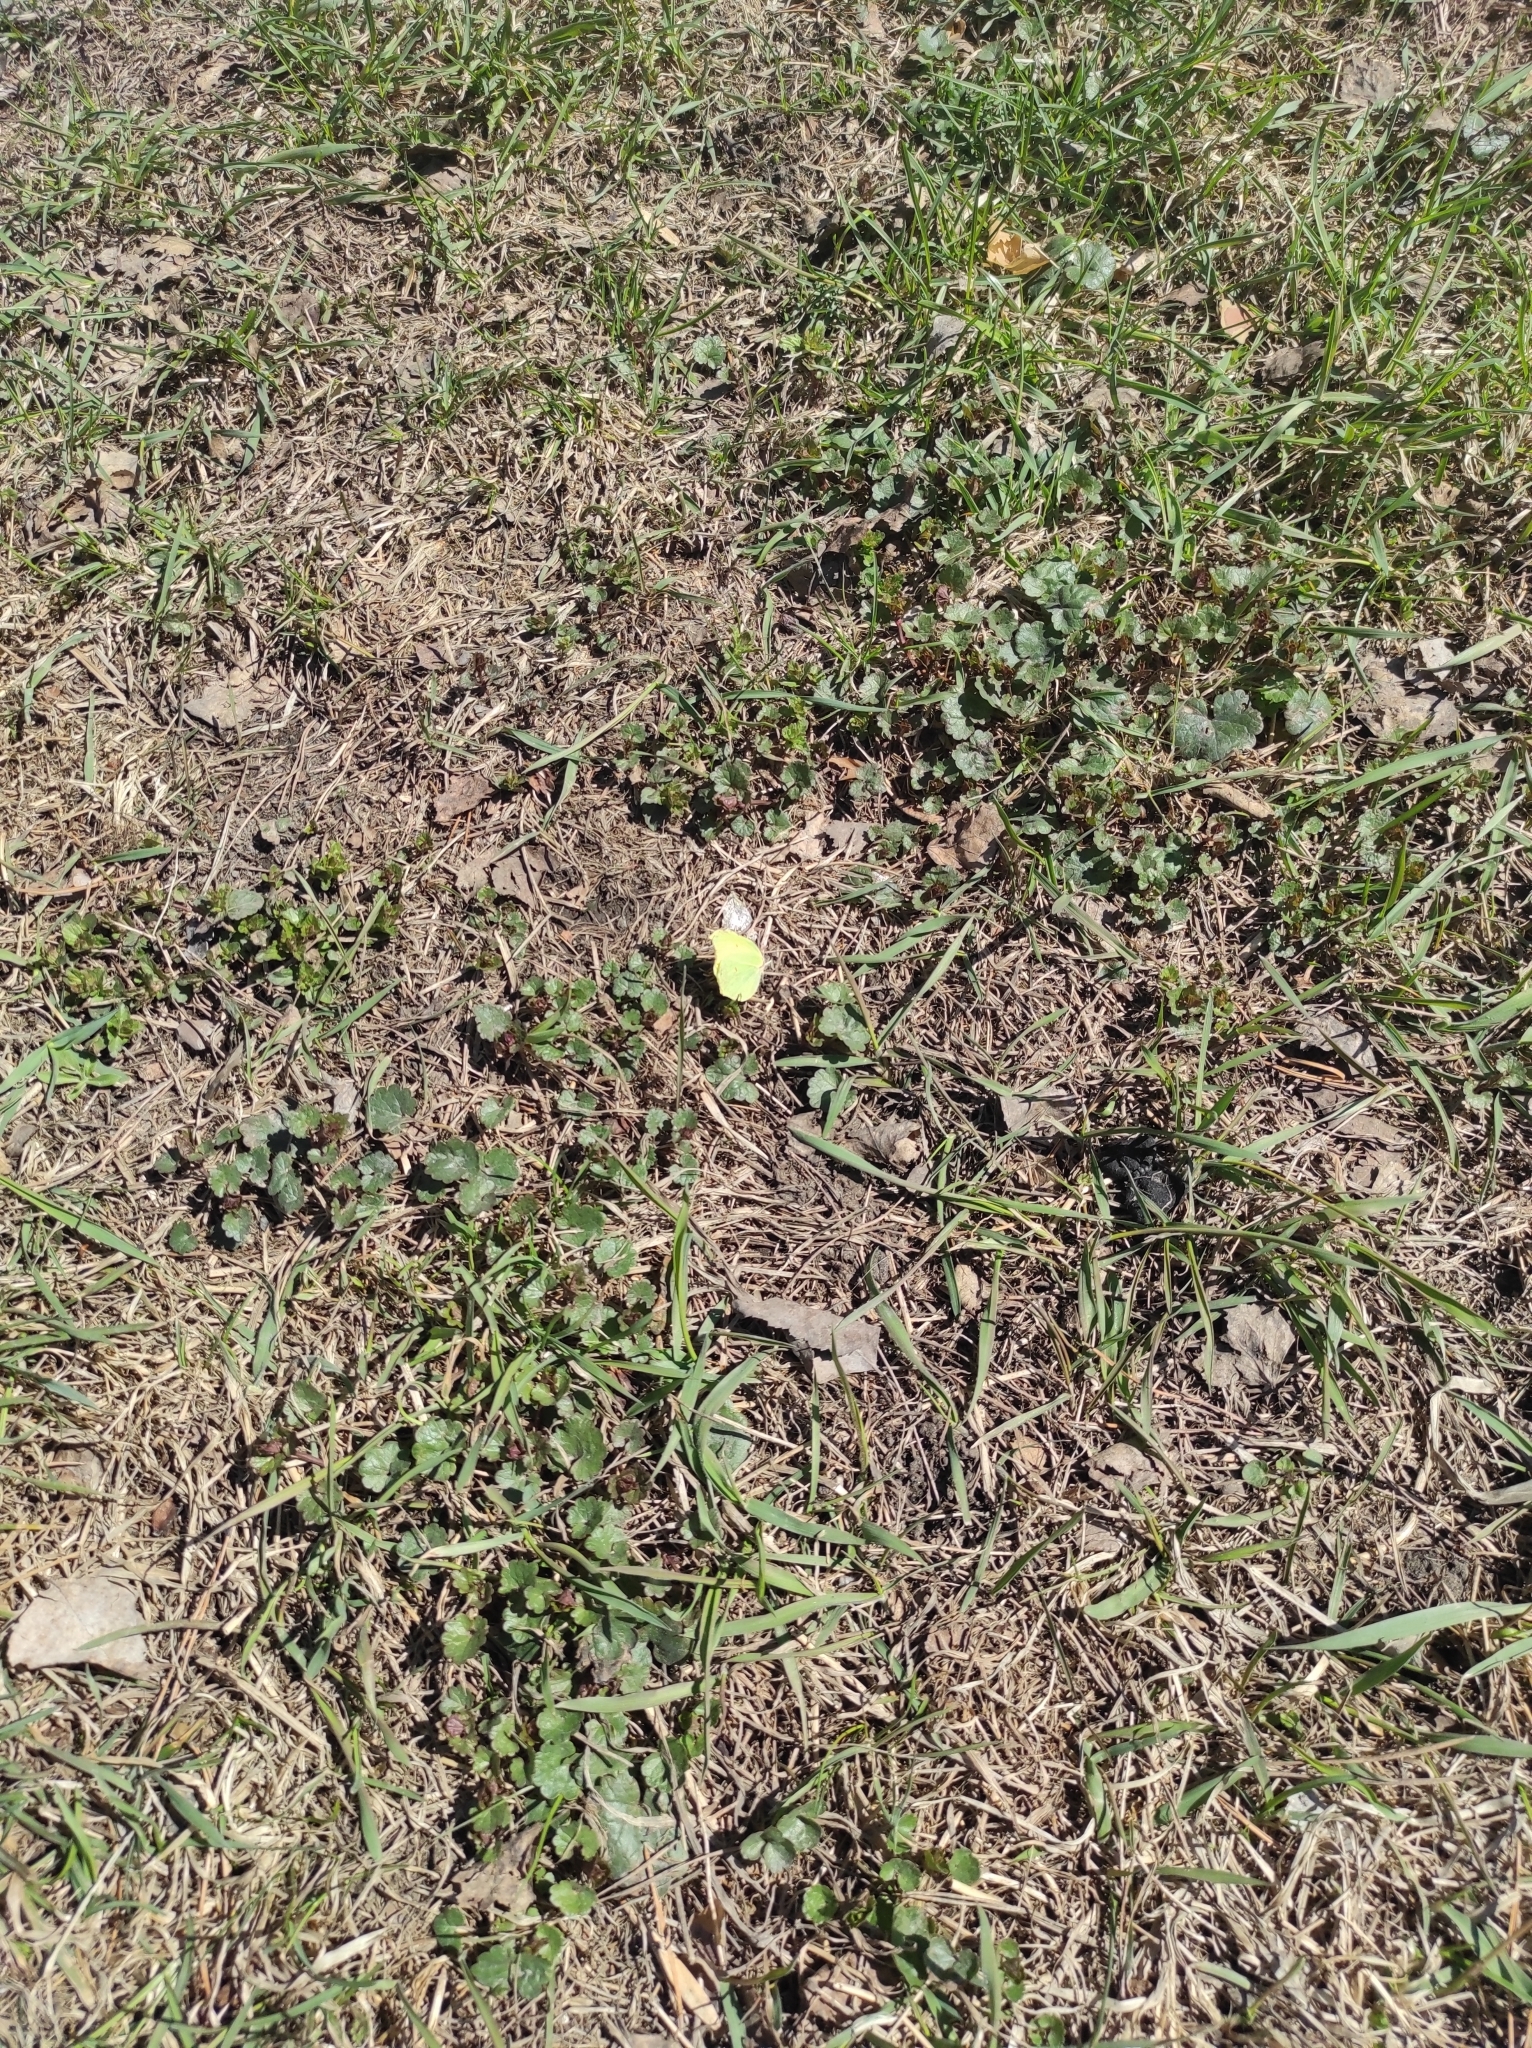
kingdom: Animalia
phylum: Arthropoda
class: Insecta
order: Lepidoptera
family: Pieridae
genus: Gonepteryx
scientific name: Gonepteryx rhamni
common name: Brimstone
